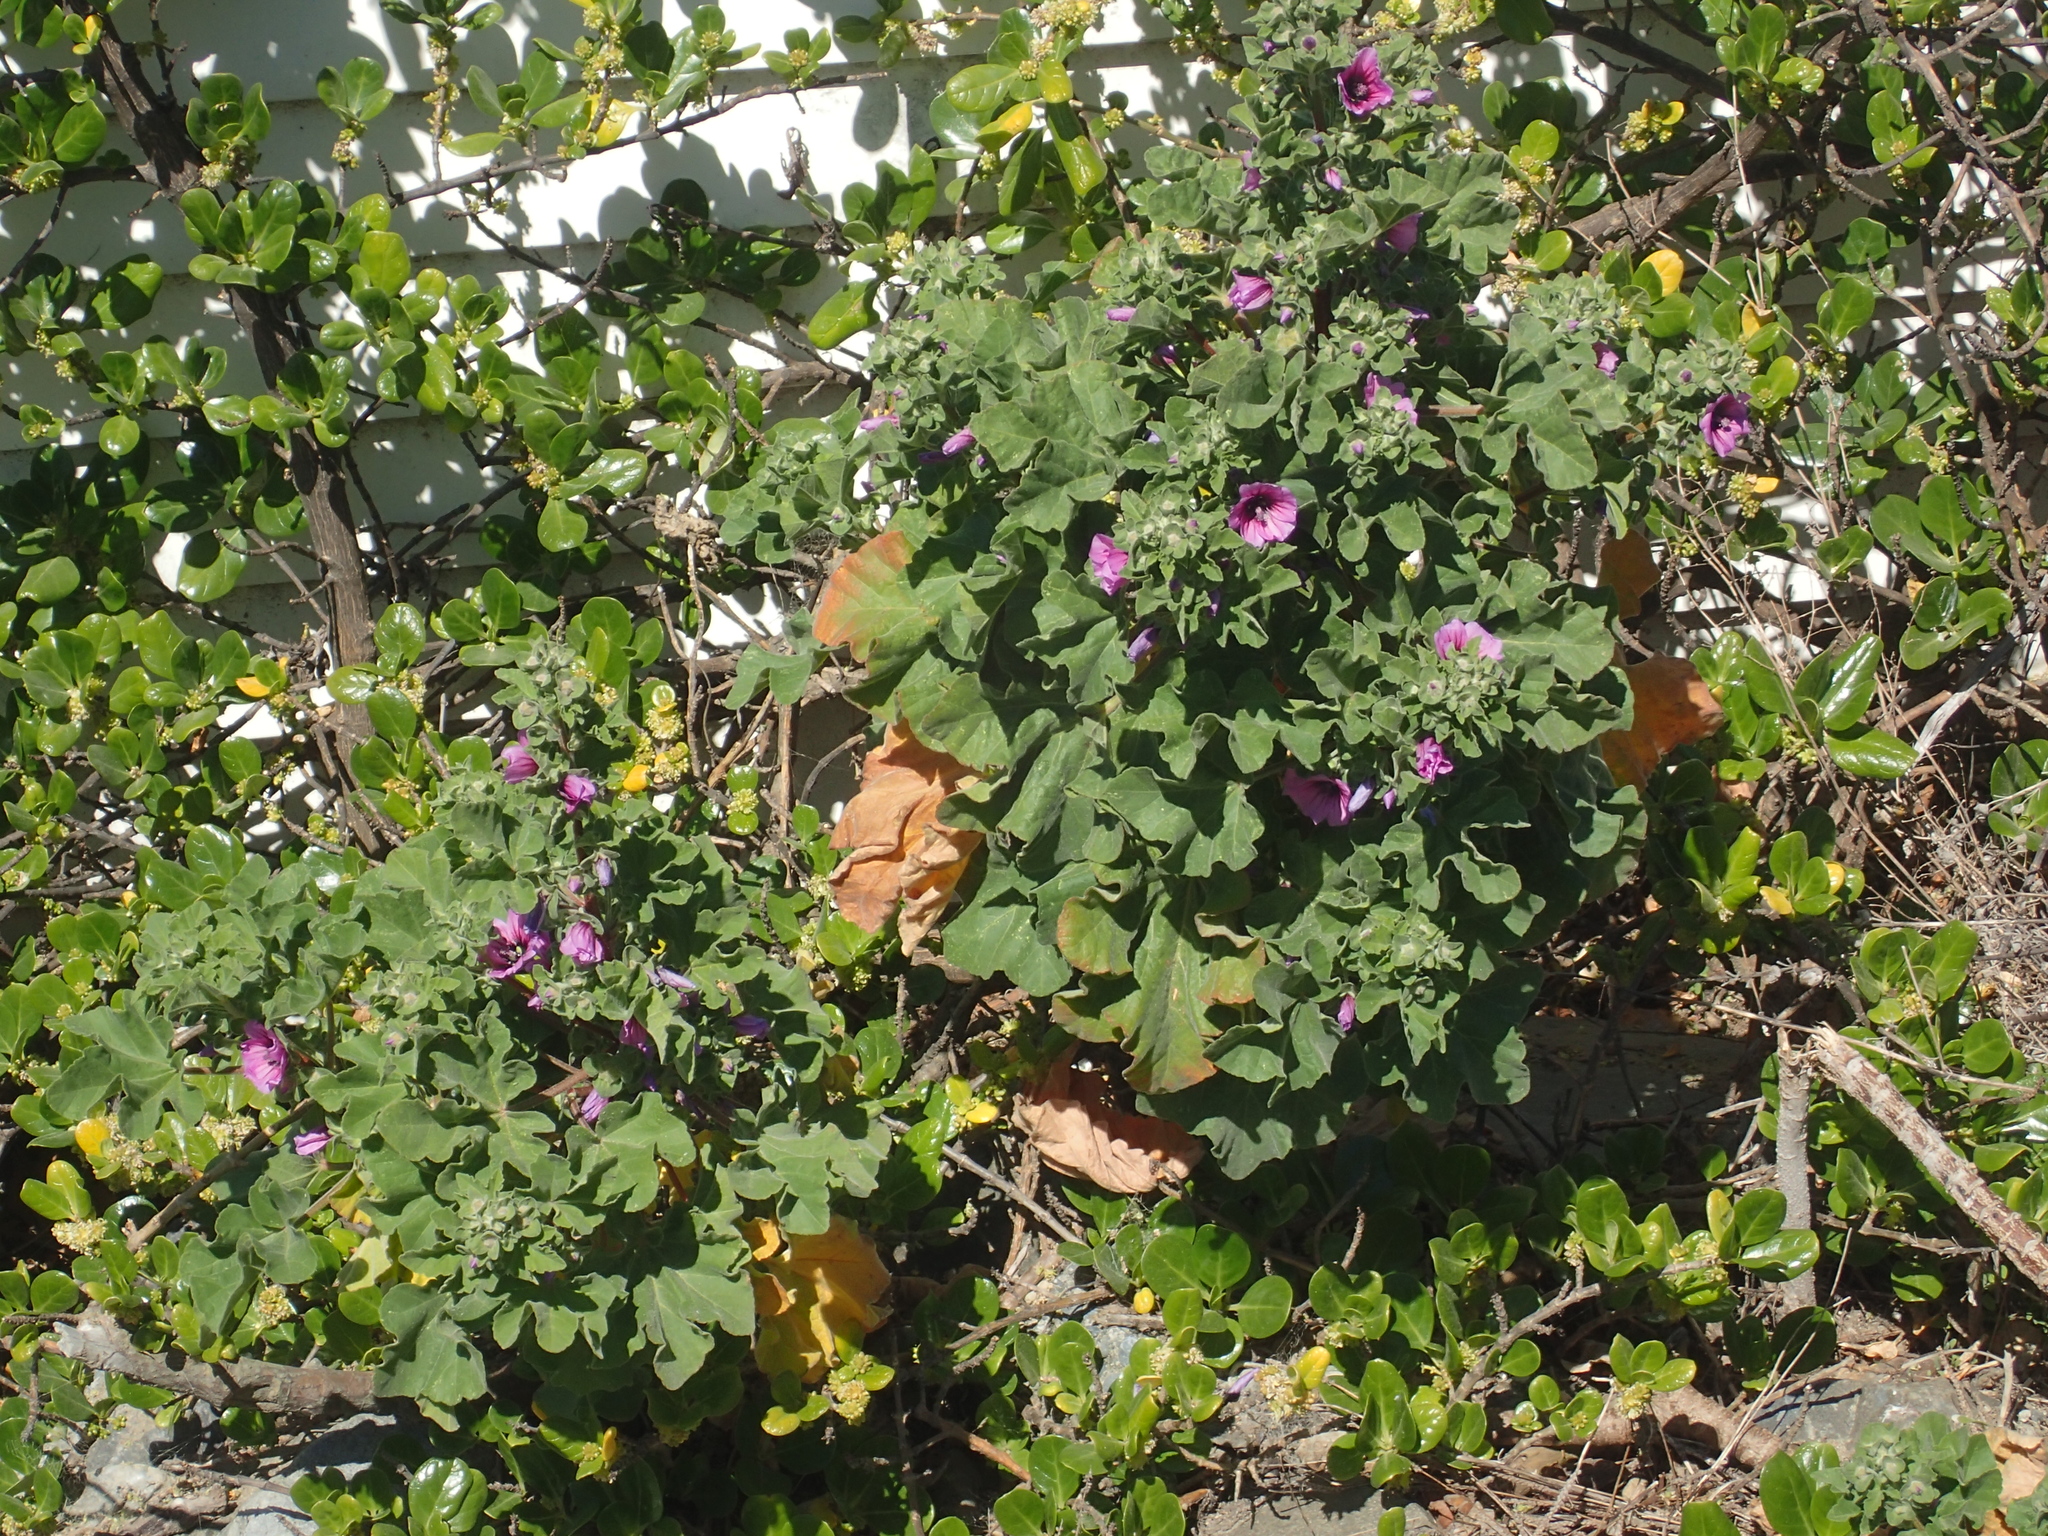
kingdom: Plantae
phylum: Tracheophyta
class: Magnoliopsida
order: Malvales
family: Malvaceae
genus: Malva
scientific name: Malva arborea
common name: Tree mallow
